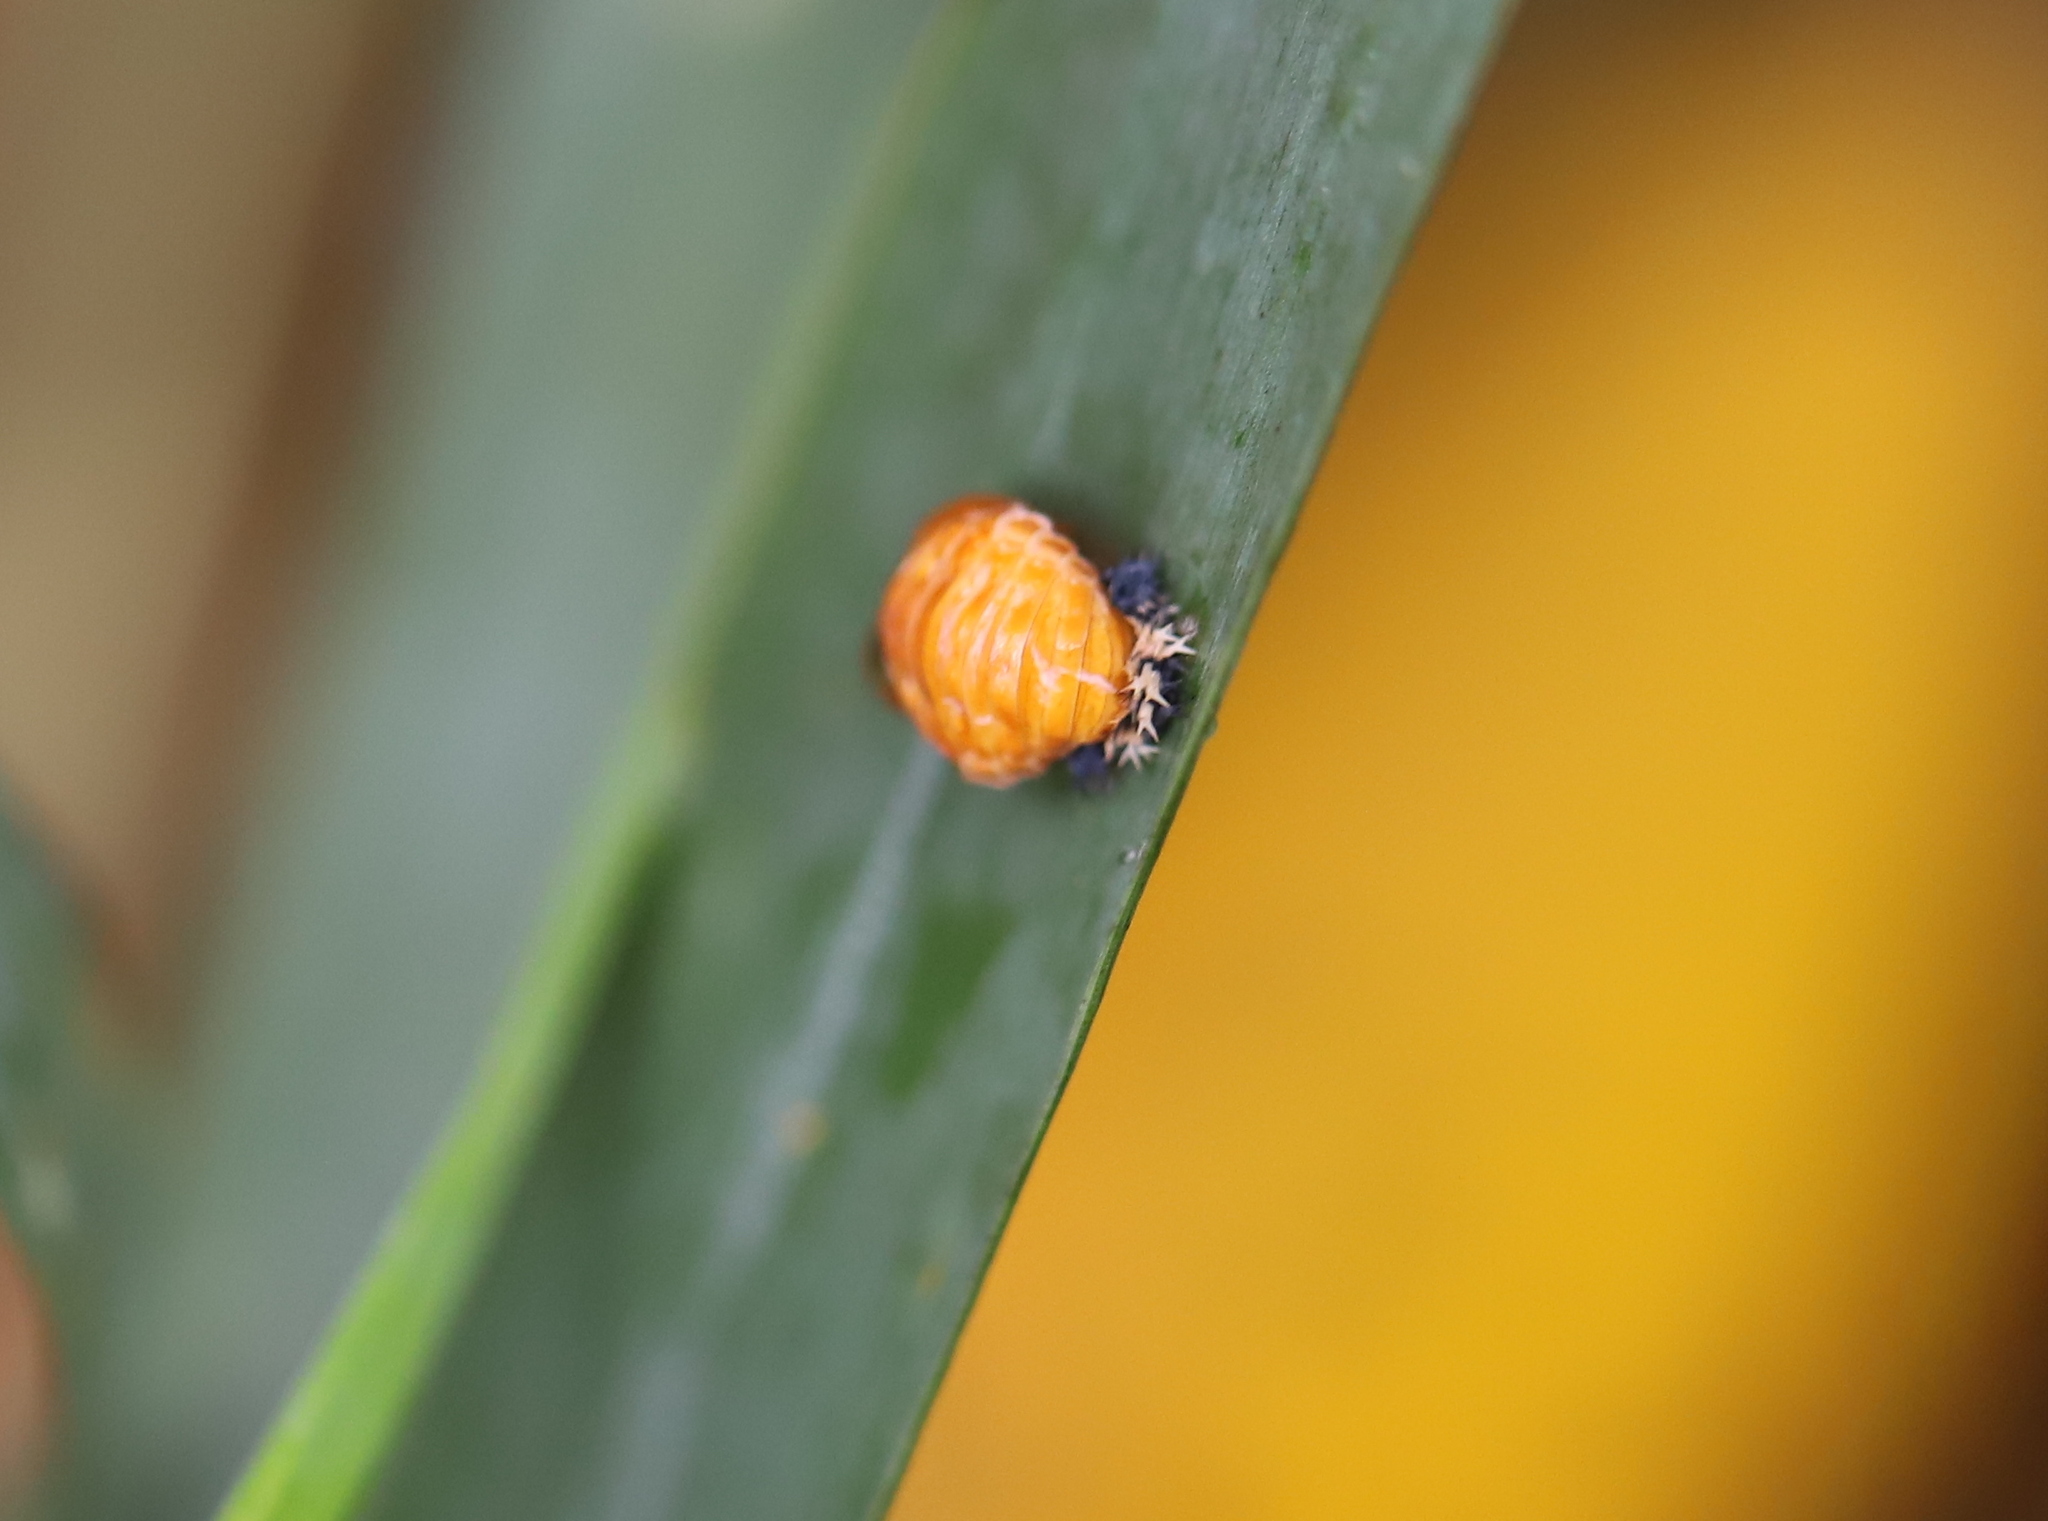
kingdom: Animalia
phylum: Arthropoda
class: Insecta
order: Coleoptera
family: Coccinellidae
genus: Harmonia
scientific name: Harmonia axyridis
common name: Harlequin ladybird
